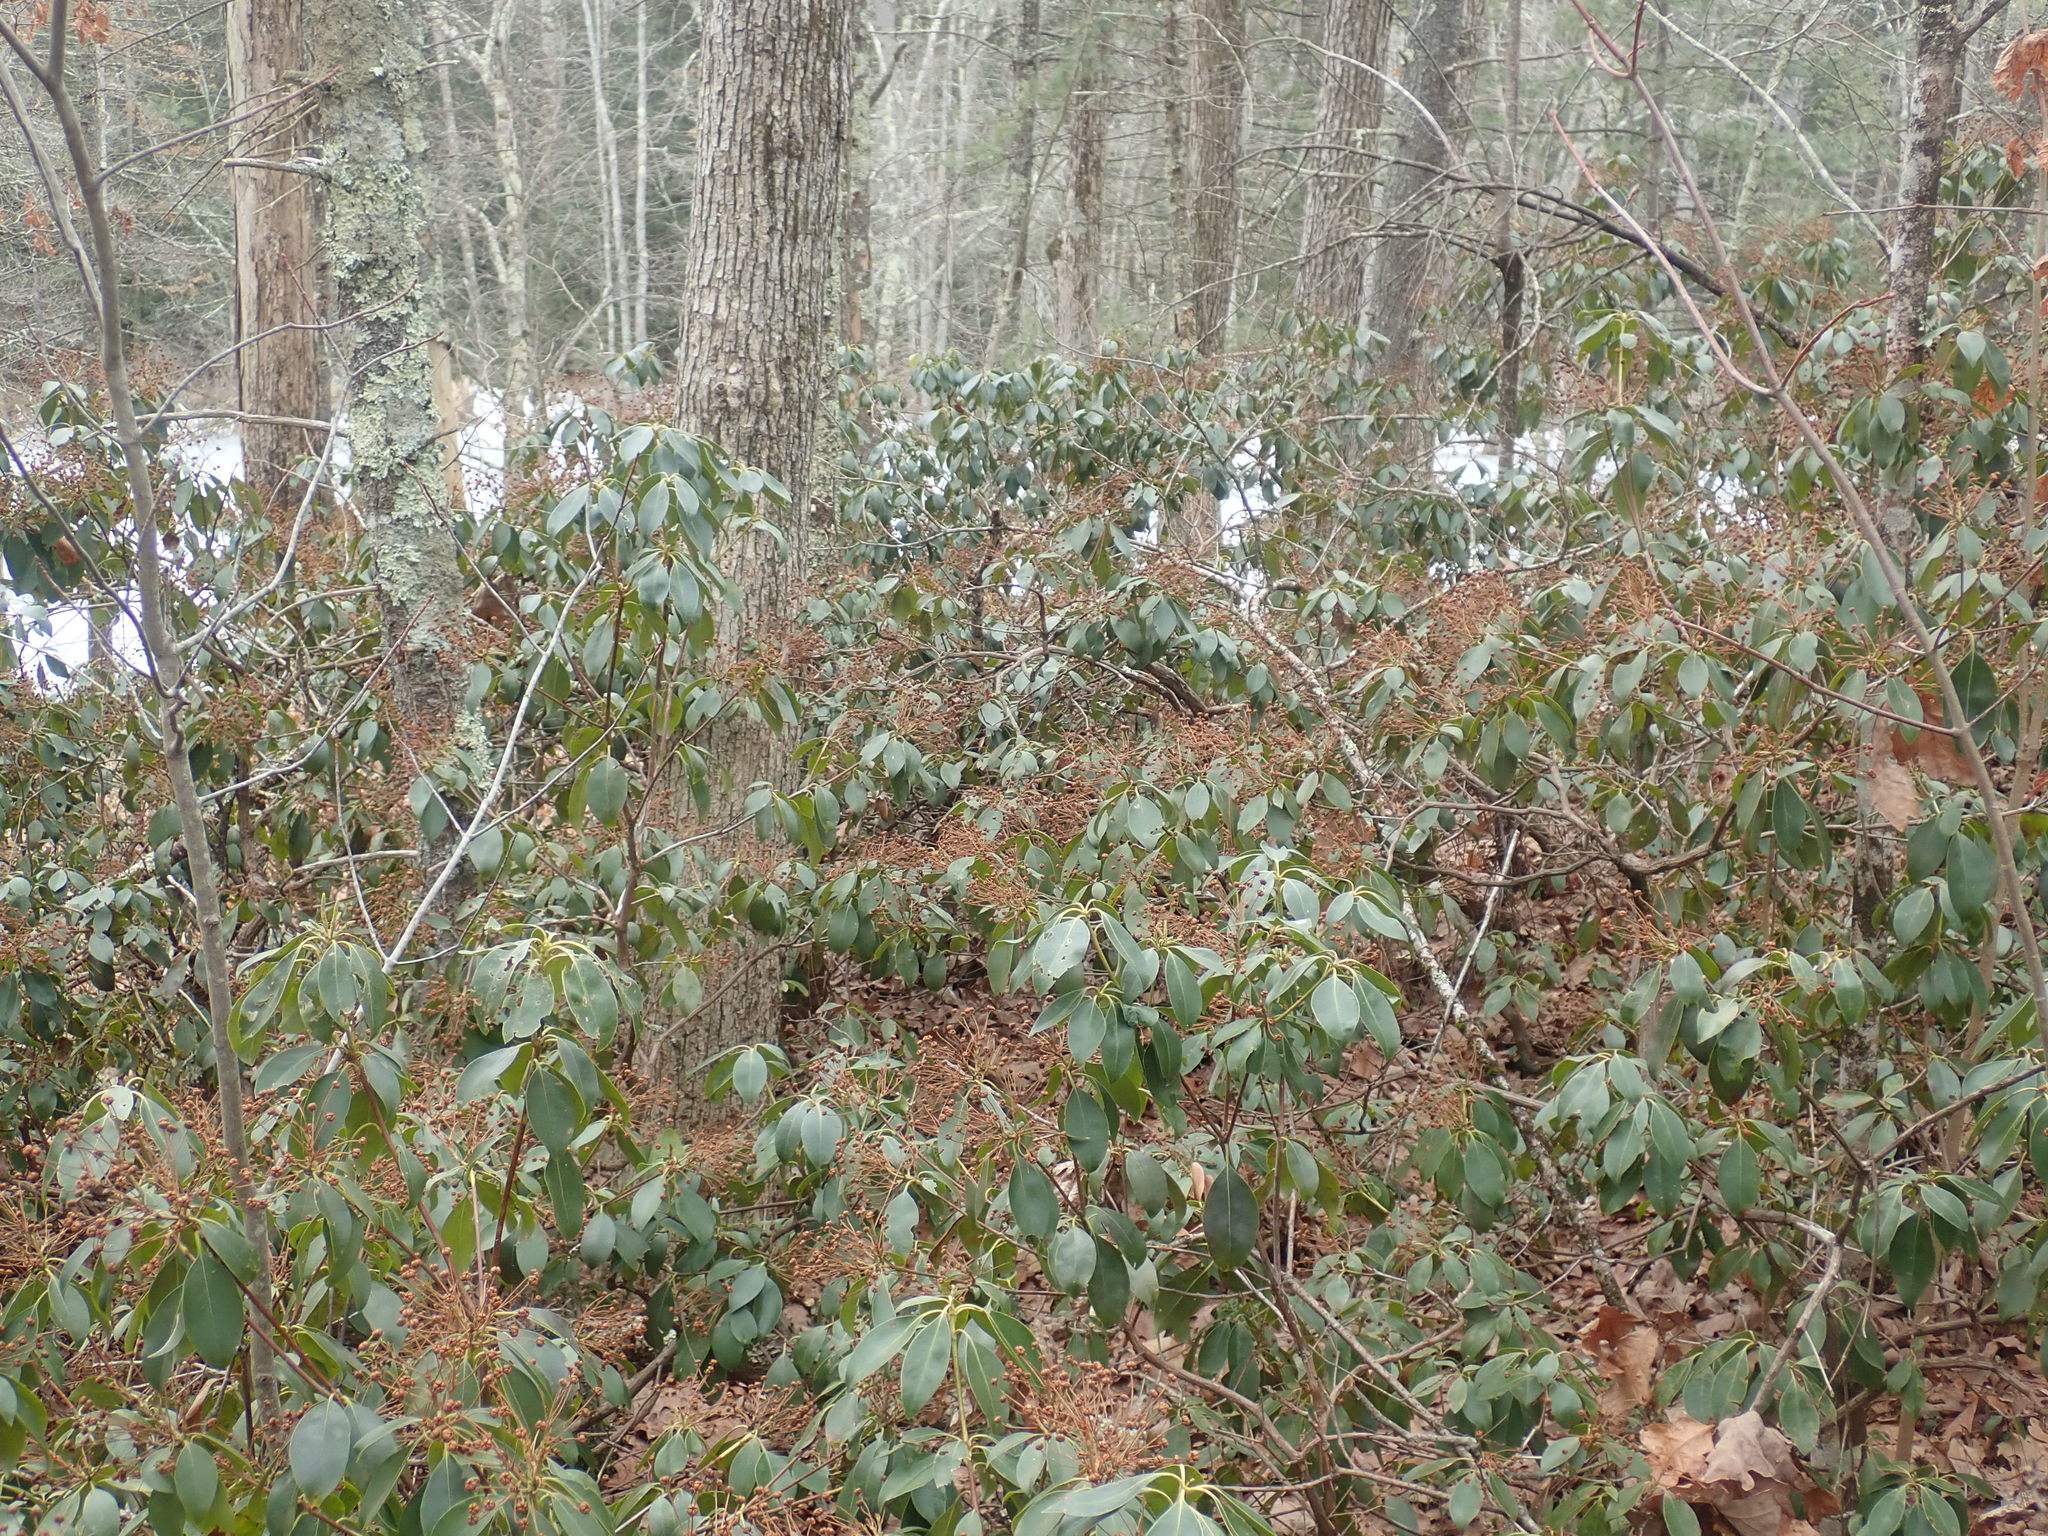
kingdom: Plantae
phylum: Tracheophyta
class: Magnoliopsida
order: Ericales
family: Ericaceae
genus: Kalmia
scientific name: Kalmia latifolia
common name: Mountain-laurel
